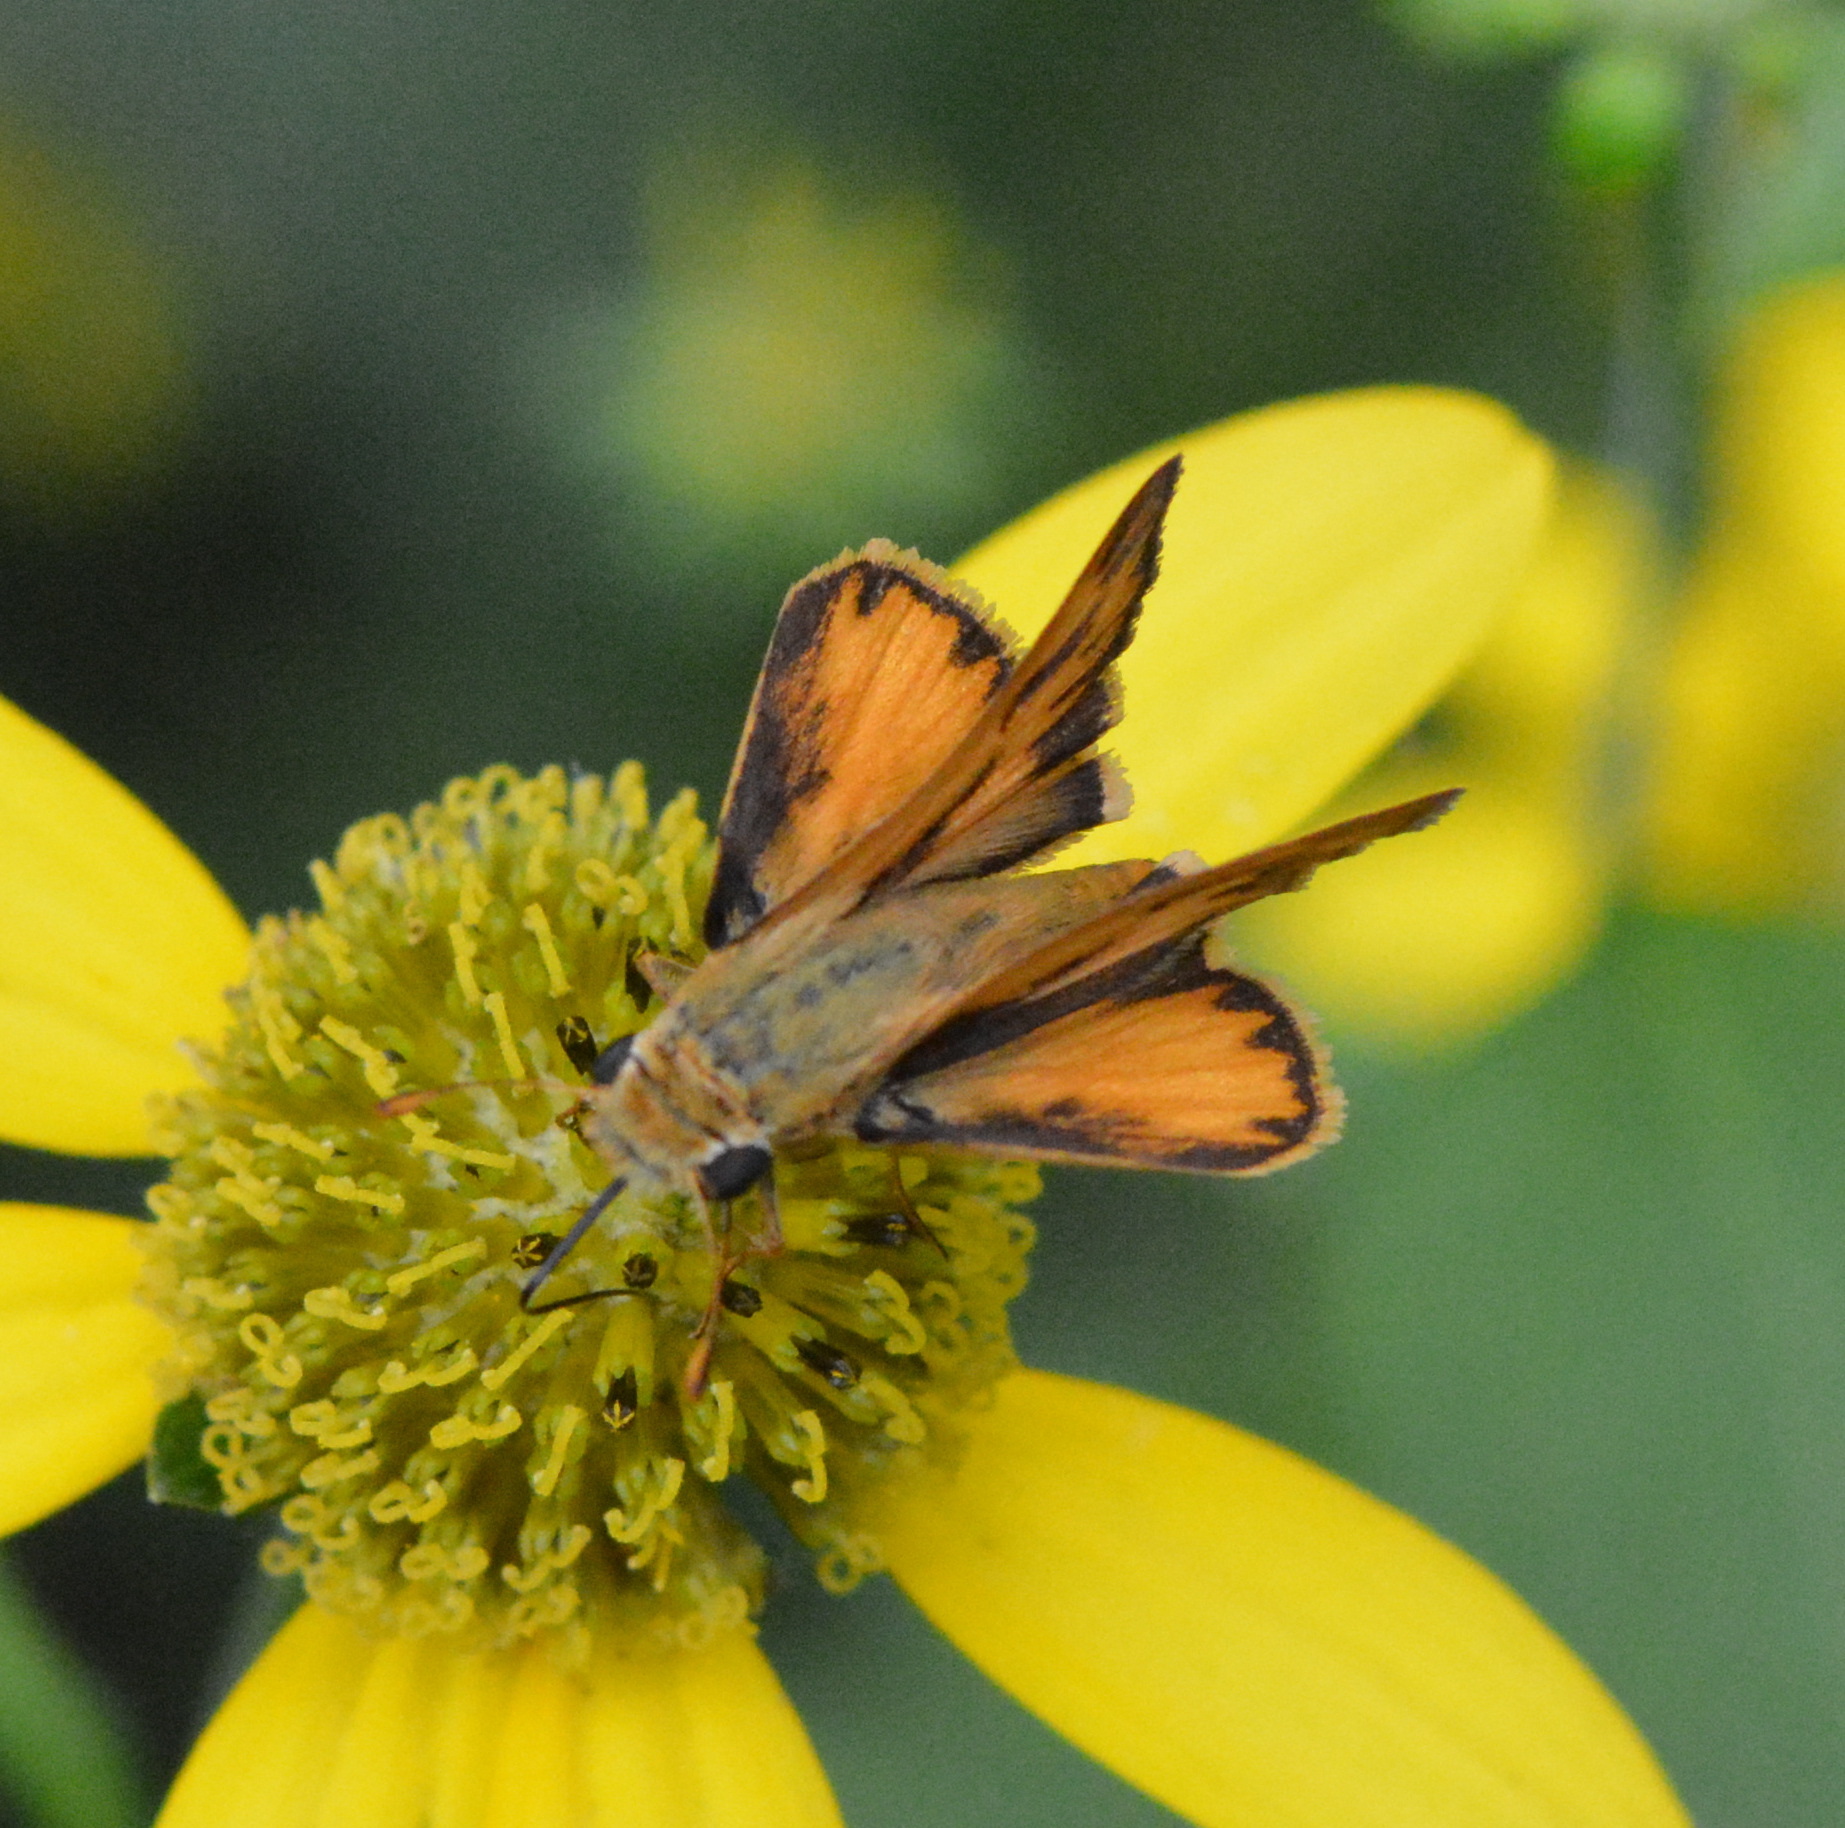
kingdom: Animalia
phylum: Arthropoda
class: Insecta
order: Lepidoptera
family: Hesperiidae
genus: Hylephila
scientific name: Hylephila phyleus
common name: Fiery skipper
